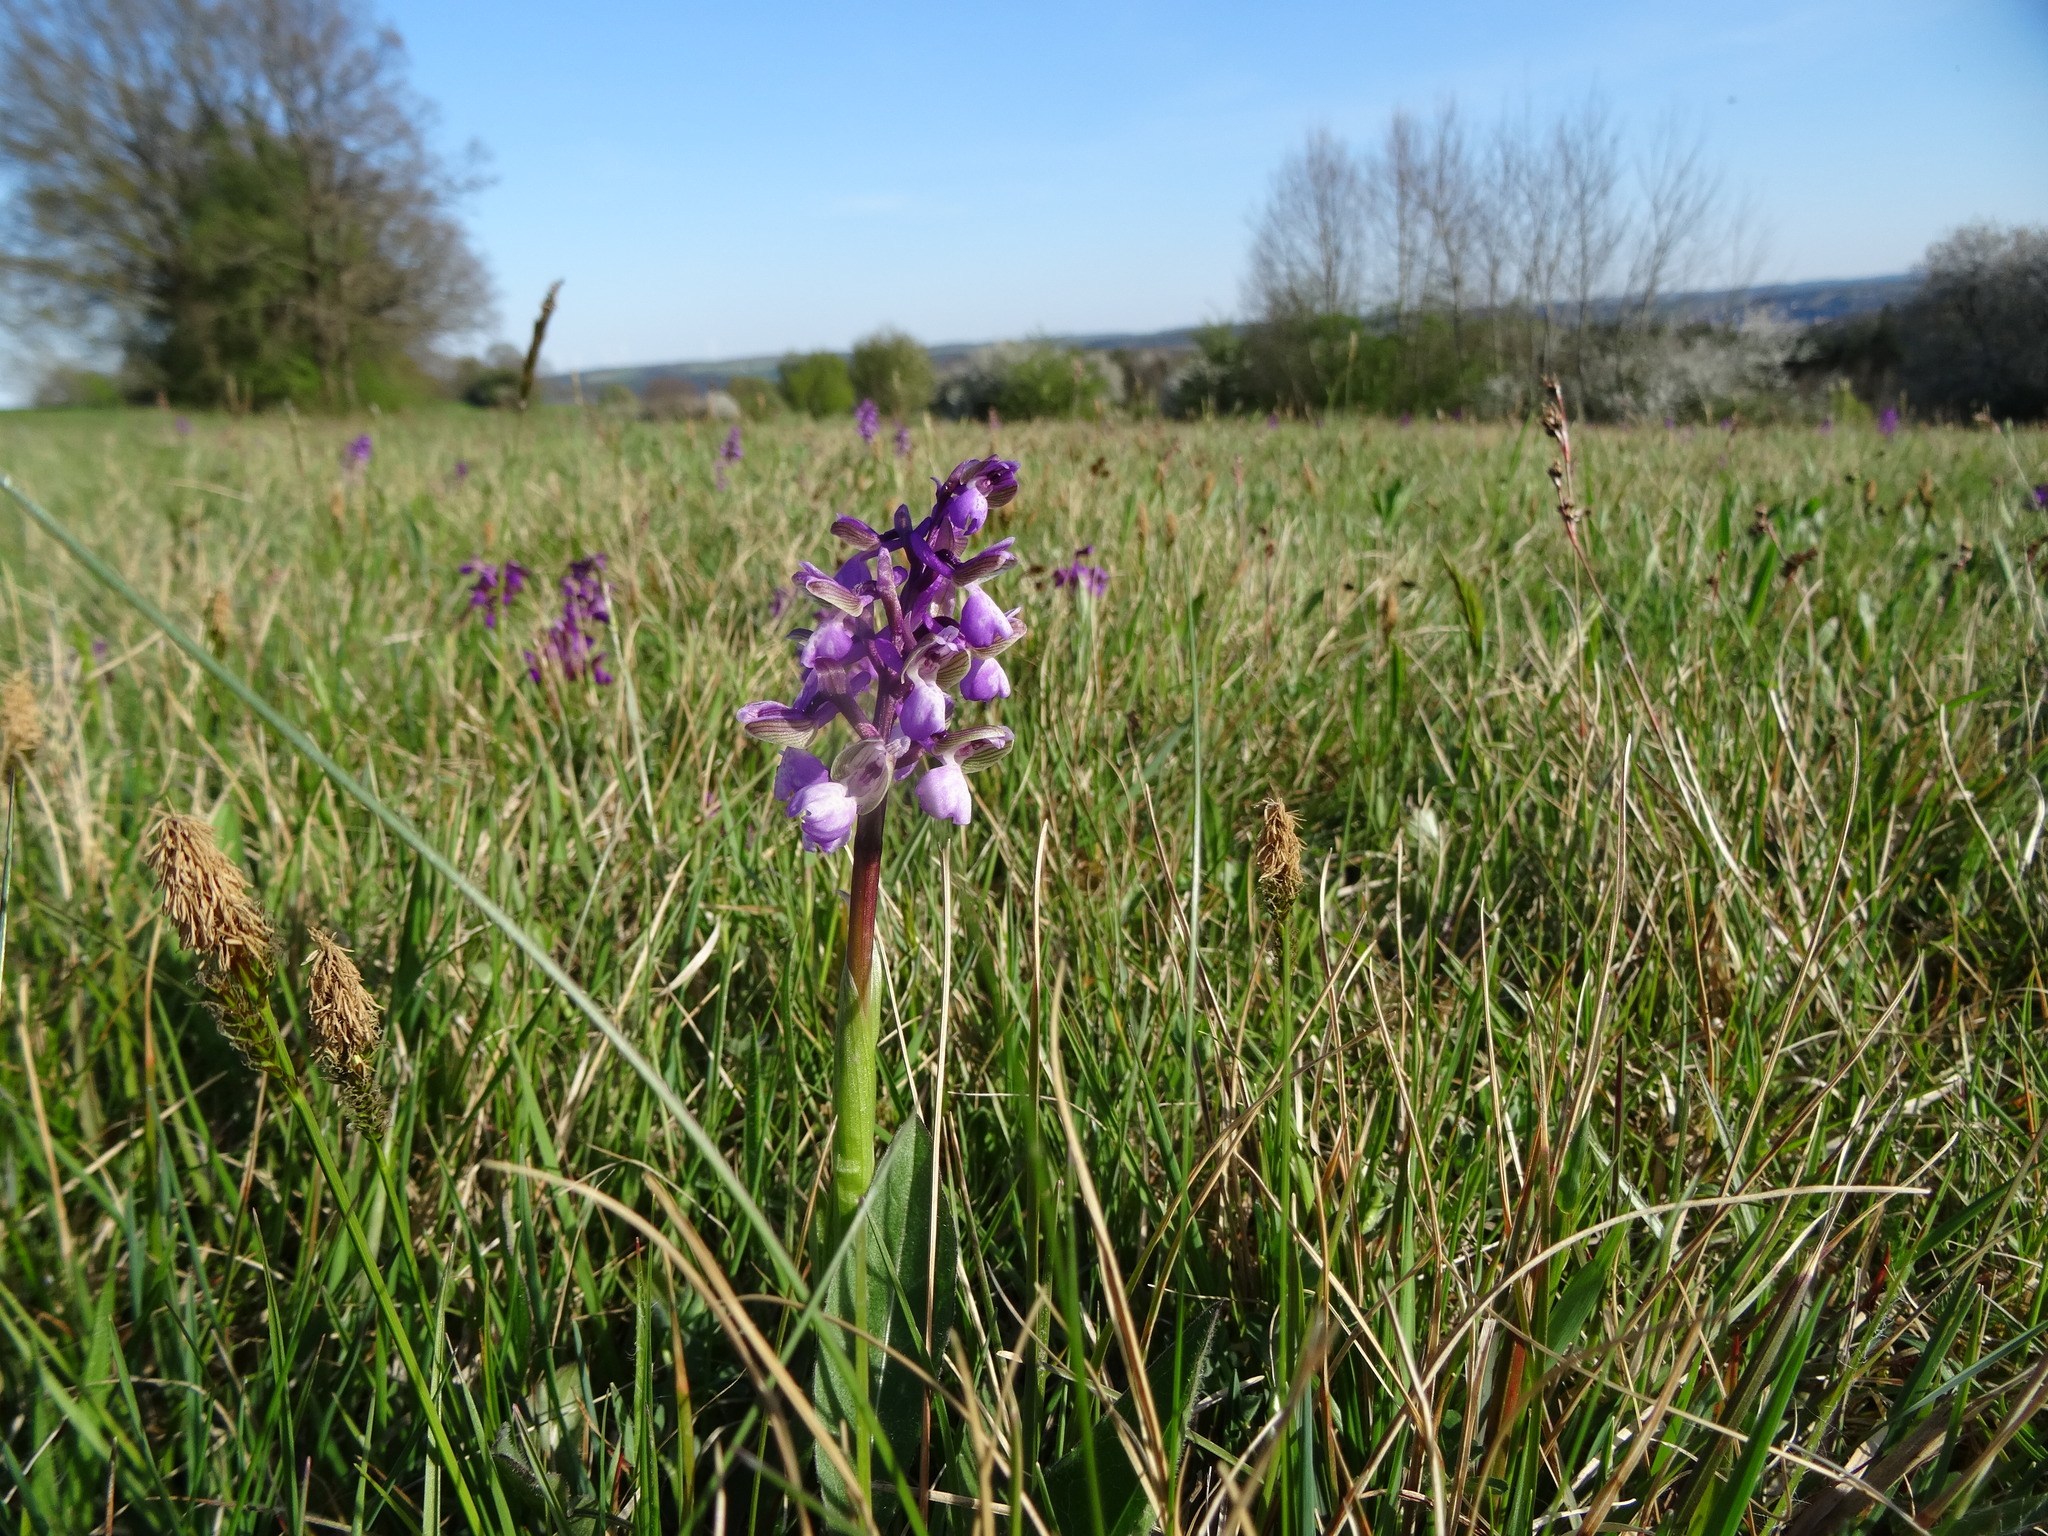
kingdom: Plantae
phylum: Tracheophyta
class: Liliopsida
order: Asparagales
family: Orchidaceae
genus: Anacamptis
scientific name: Anacamptis morio
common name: Green-winged orchid
